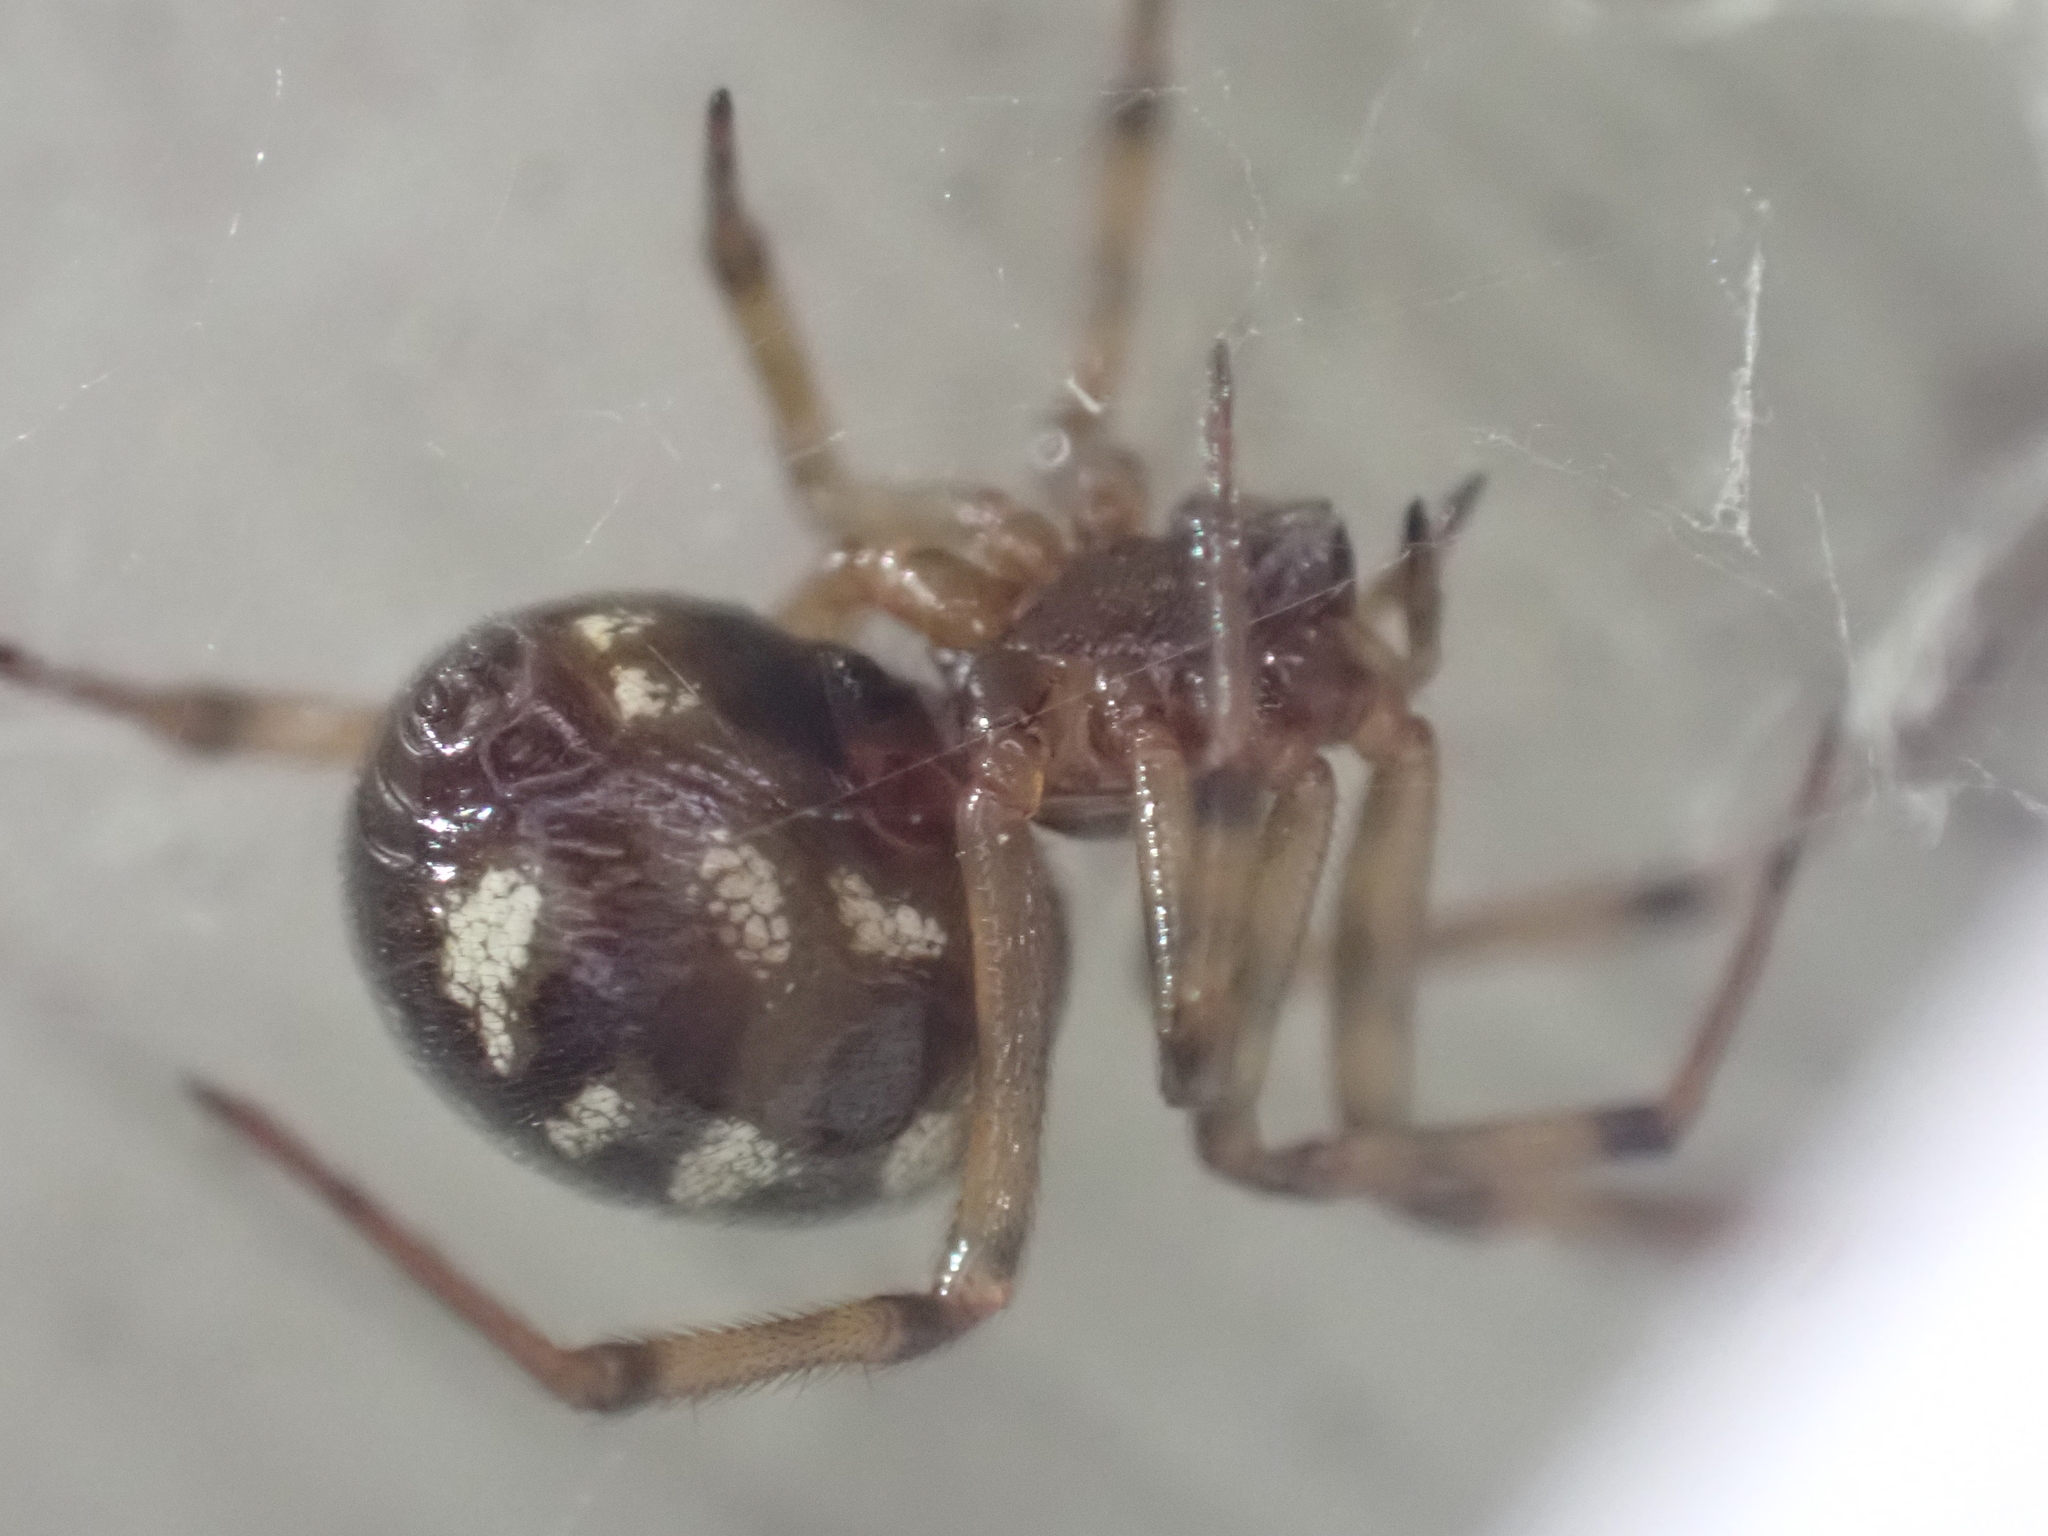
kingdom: Animalia
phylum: Arthropoda
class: Arachnida
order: Araneae
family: Theridiidae
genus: Steatoda
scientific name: Steatoda triangulosa
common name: Triangulate bud spider
